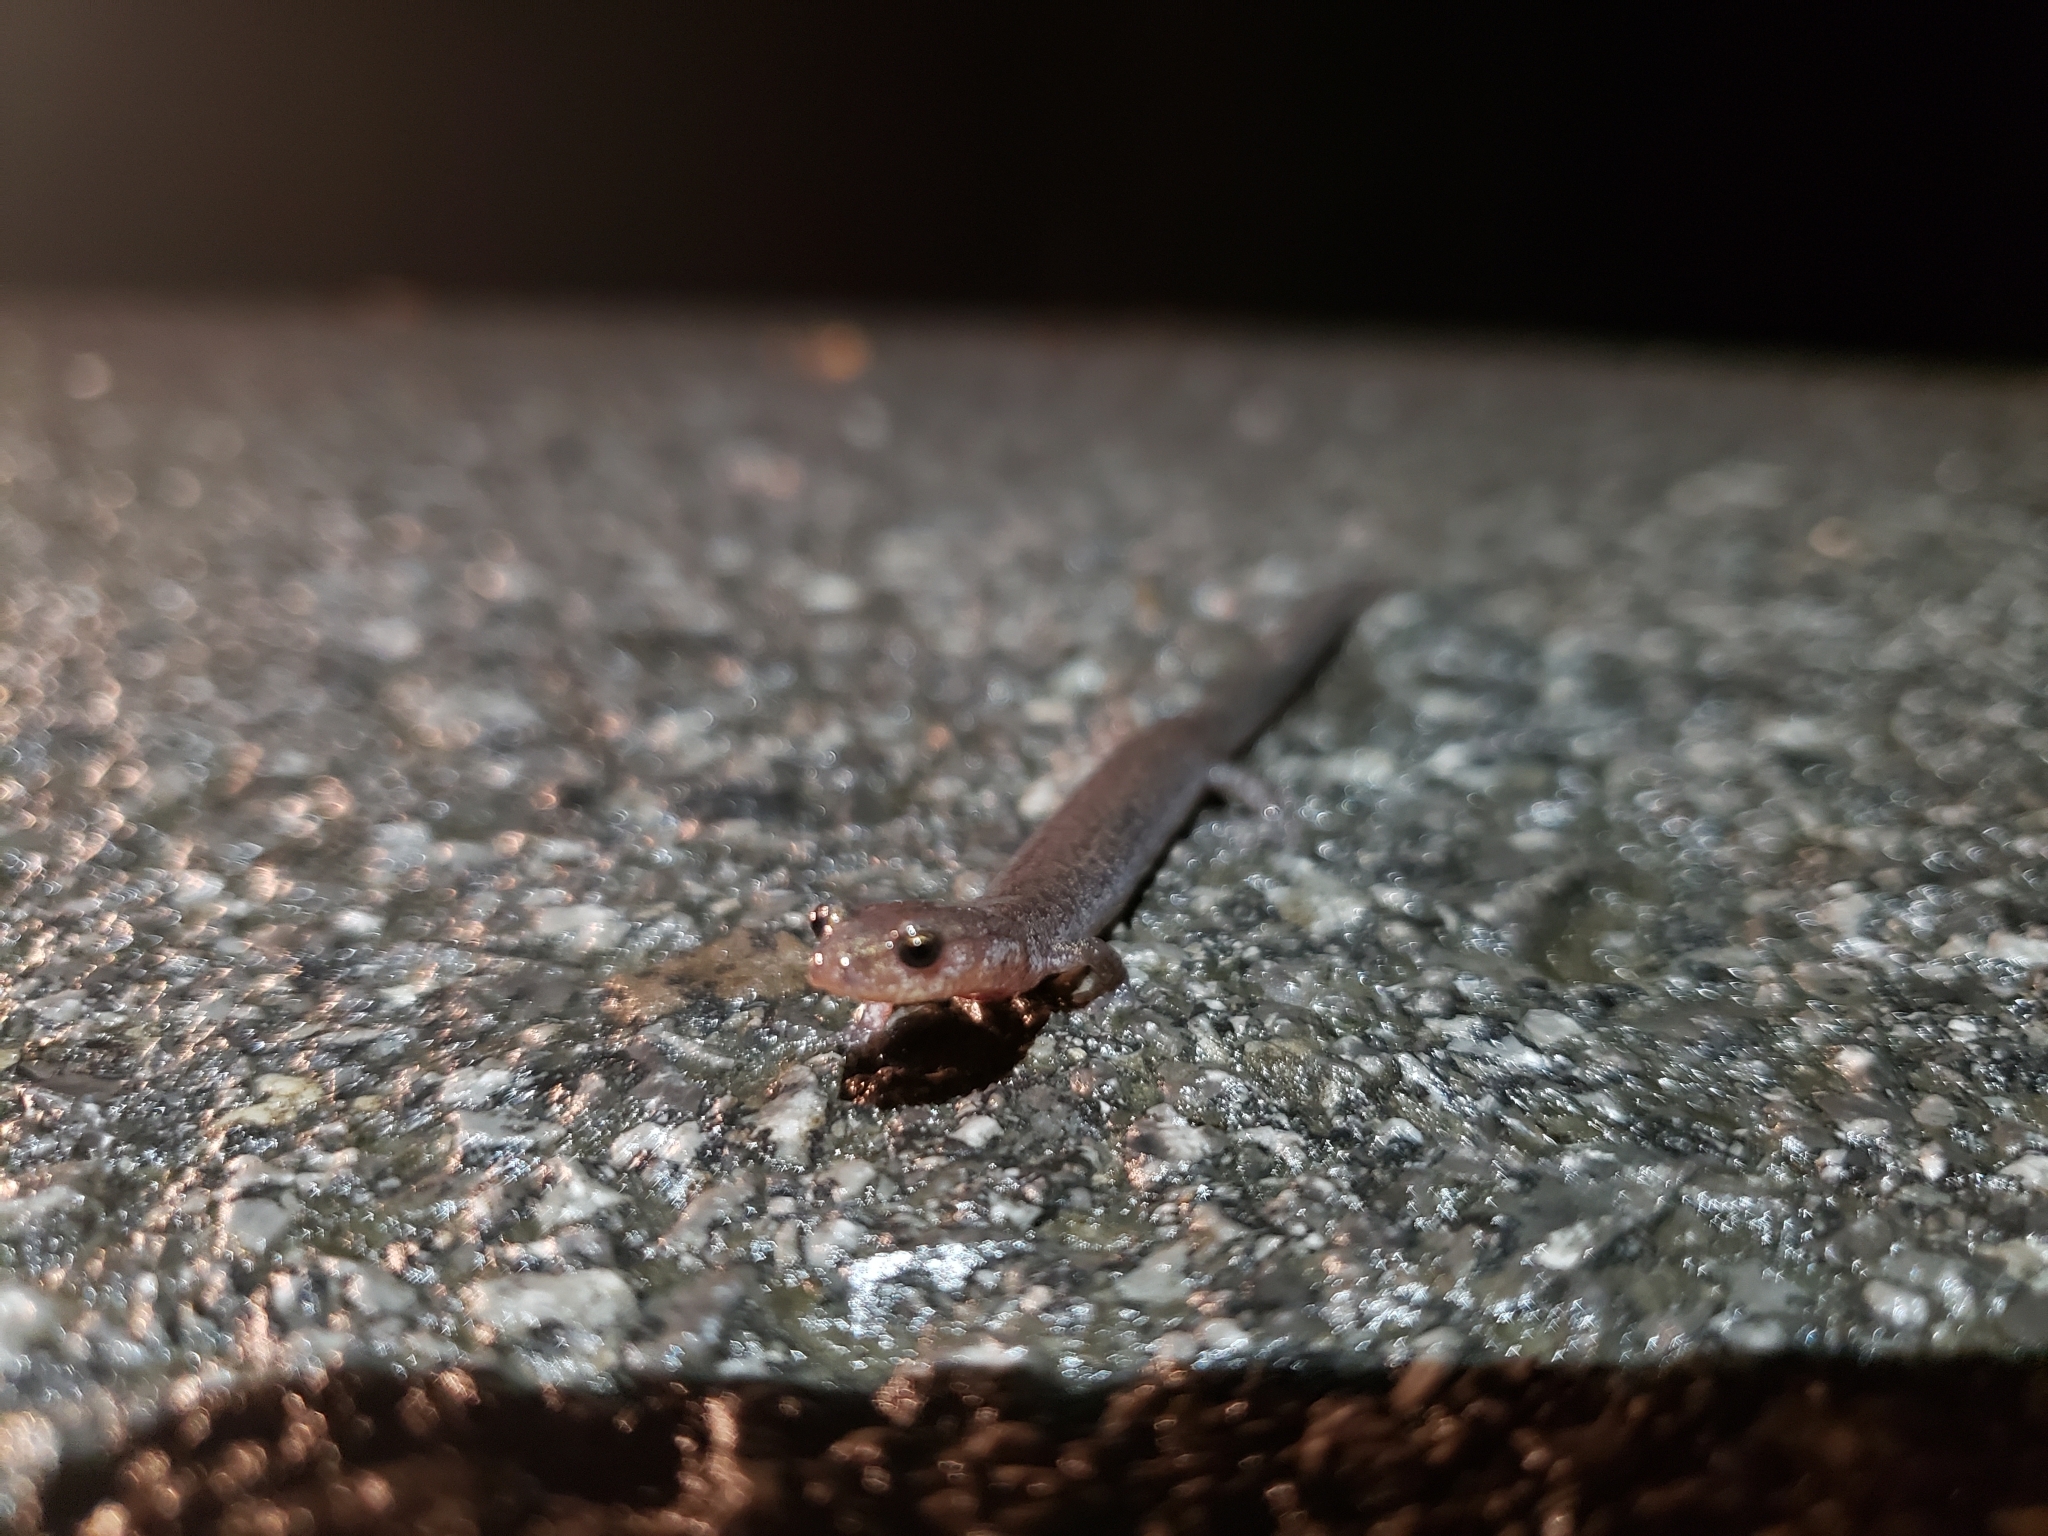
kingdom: Animalia
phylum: Chordata
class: Amphibia
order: Caudata
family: Plethodontidae
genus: Plethodon
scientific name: Plethodon hoffmani
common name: Valley and ridge salamander
